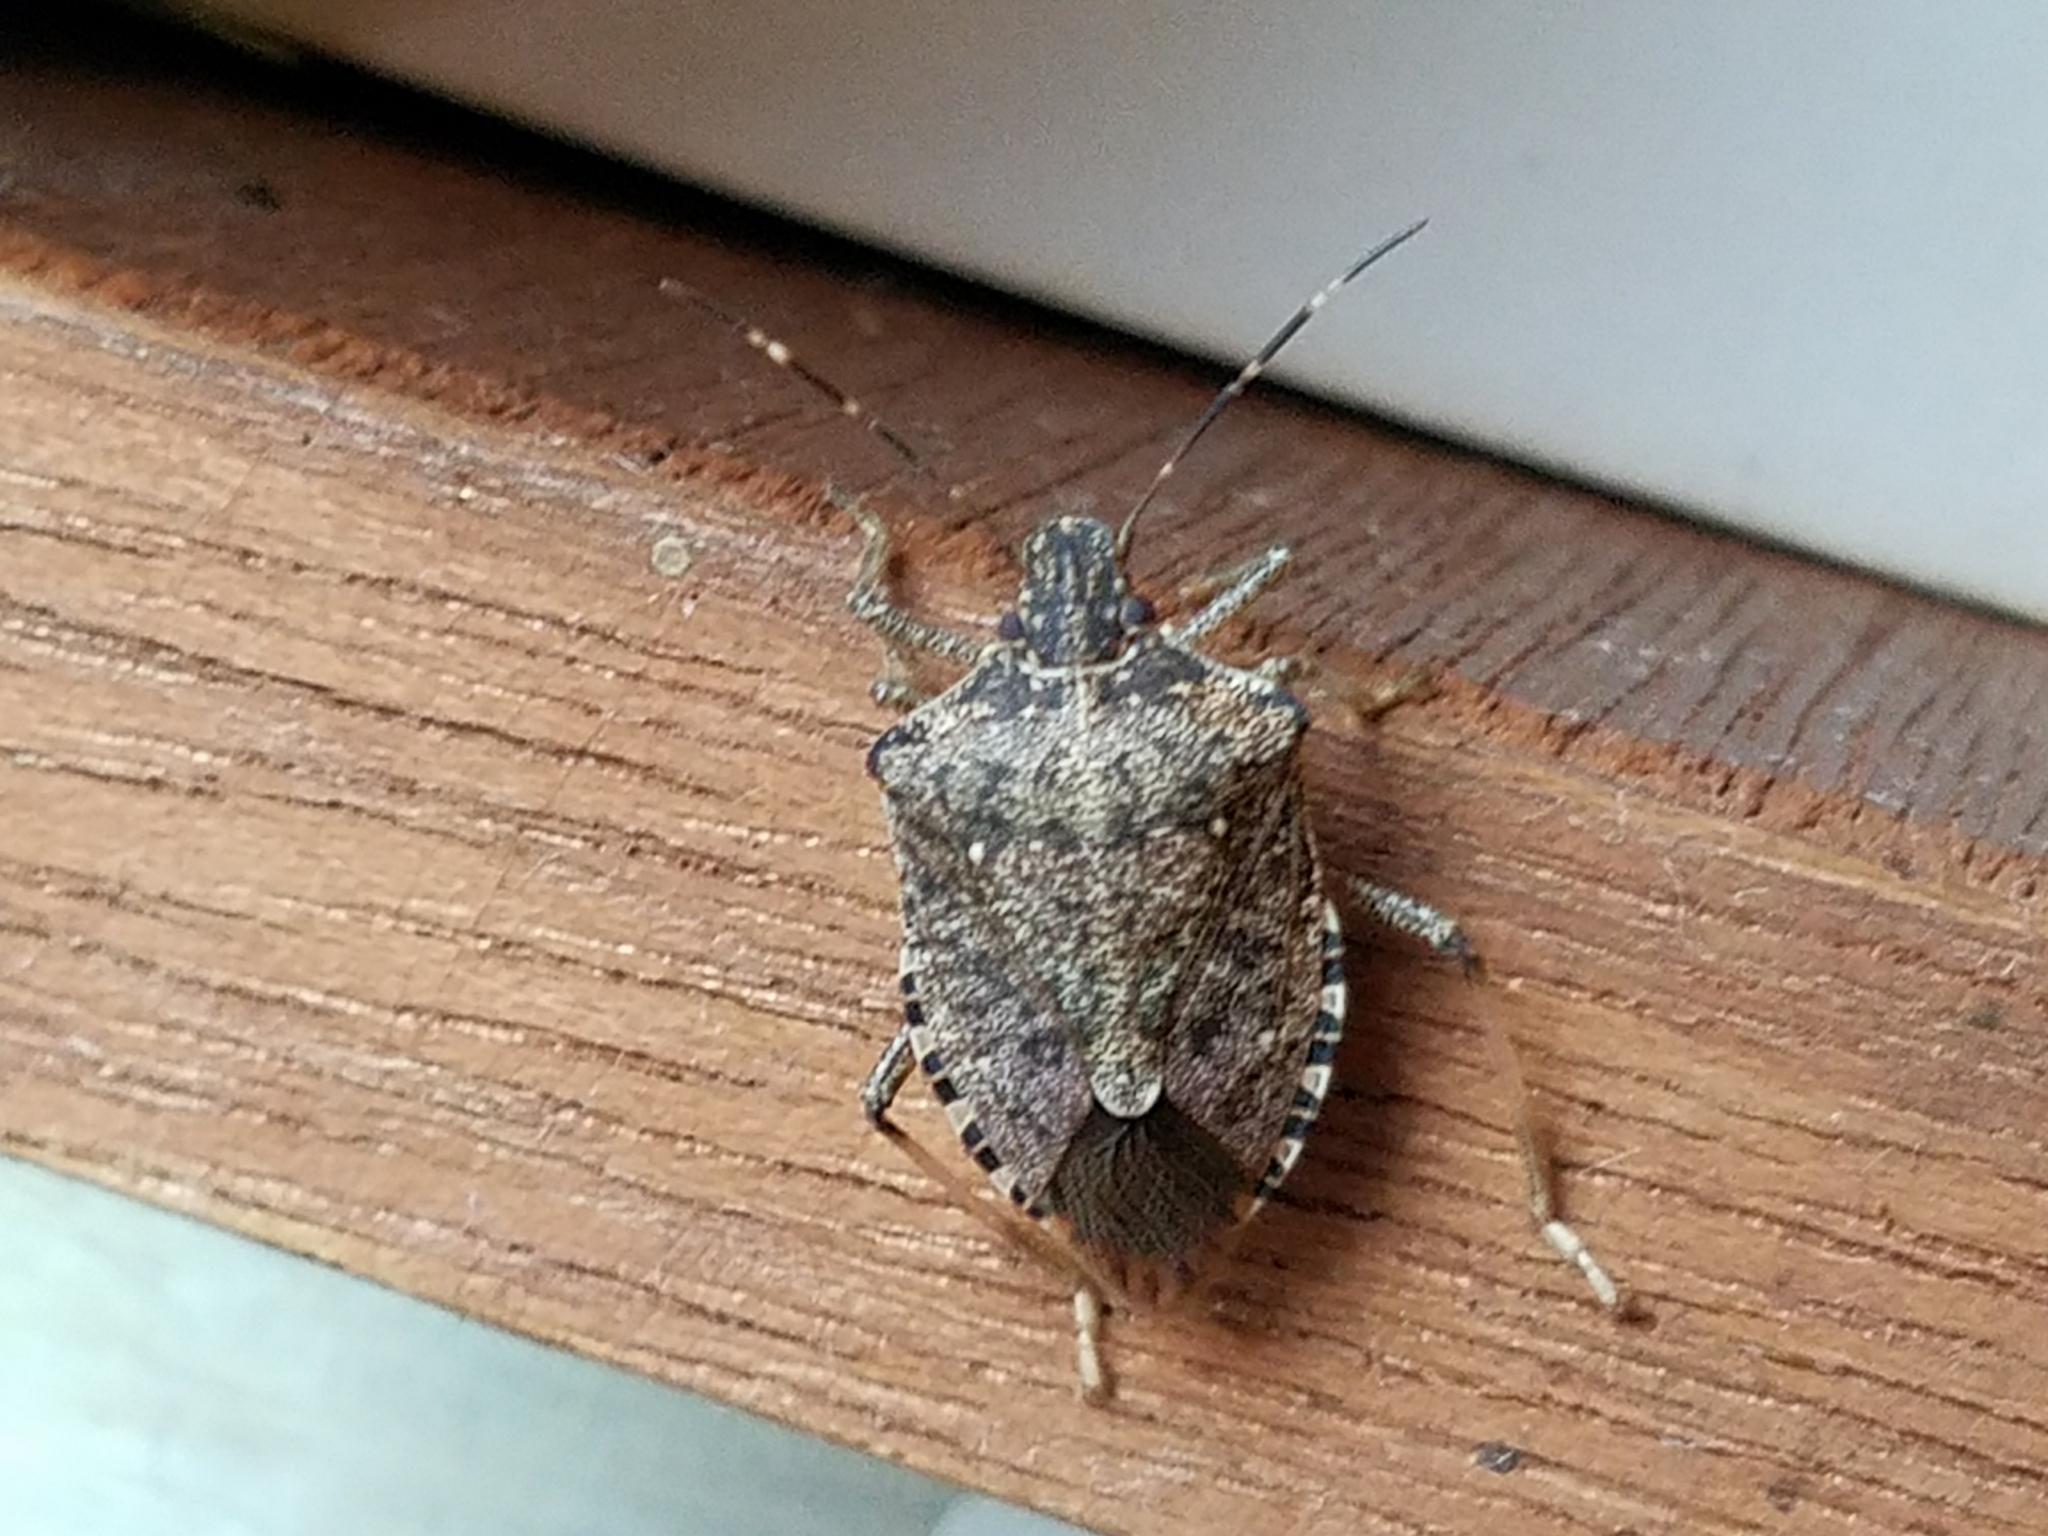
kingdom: Animalia
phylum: Arthropoda
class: Insecta
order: Hemiptera
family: Pentatomidae
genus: Halyomorpha
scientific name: Halyomorpha halys
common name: Brown marmorated stink bug
